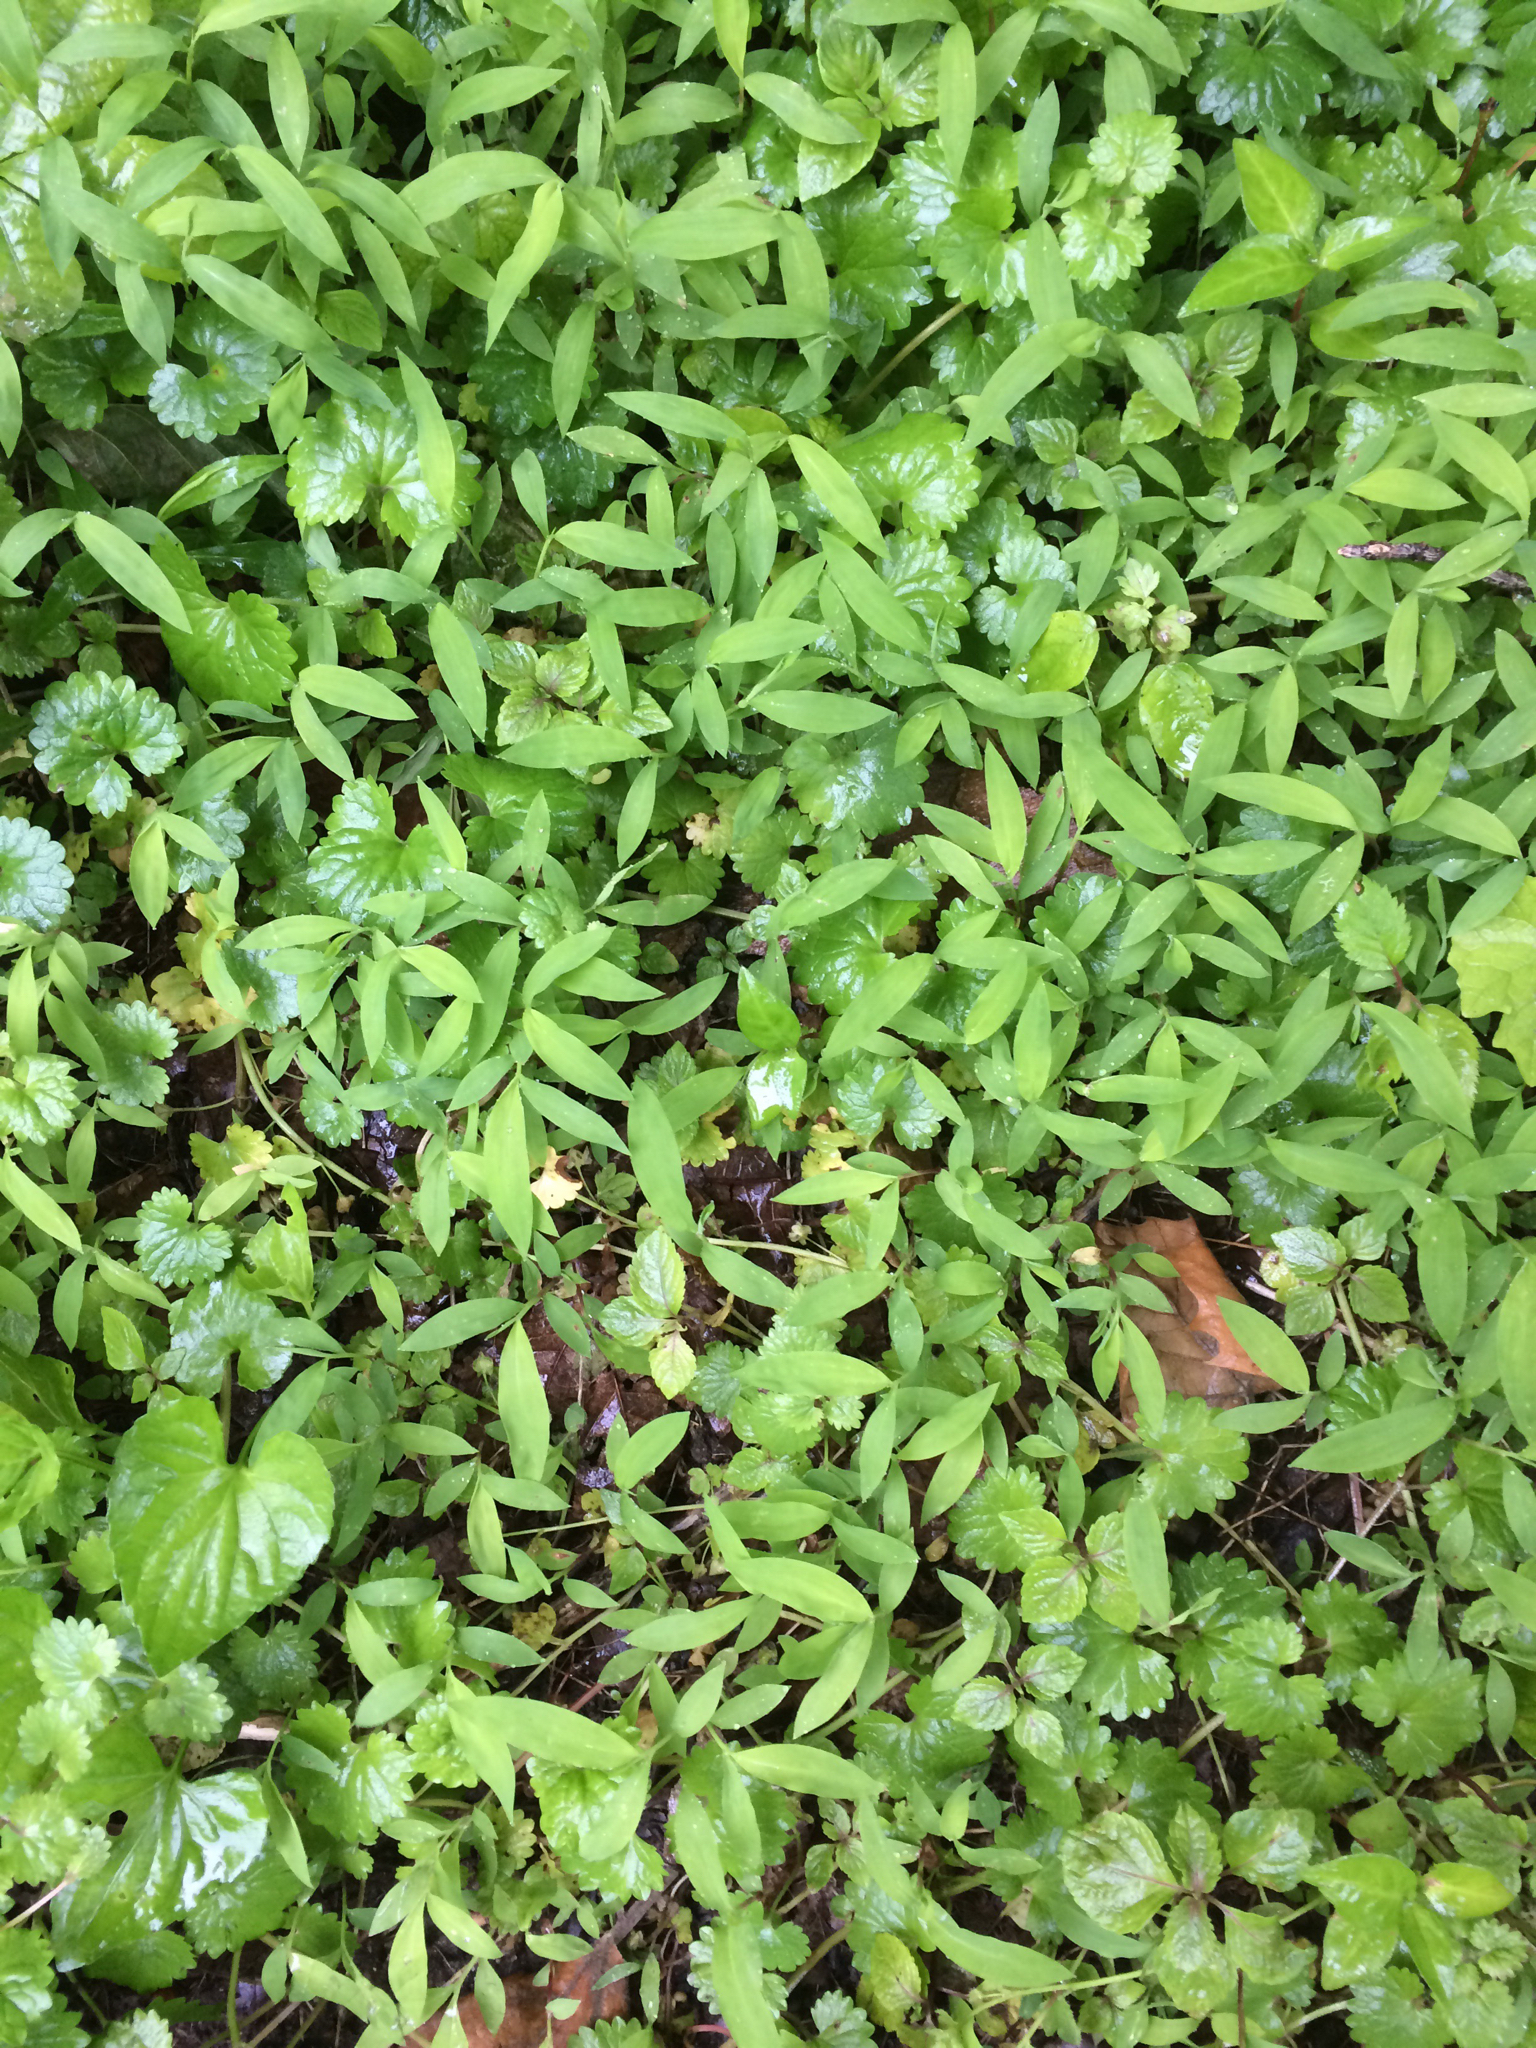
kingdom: Plantae
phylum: Tracheophyta
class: Liliopsida
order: Poales
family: Poaceae
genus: Microstegium
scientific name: Microstegium vimineum
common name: Japanese stiltgrass
